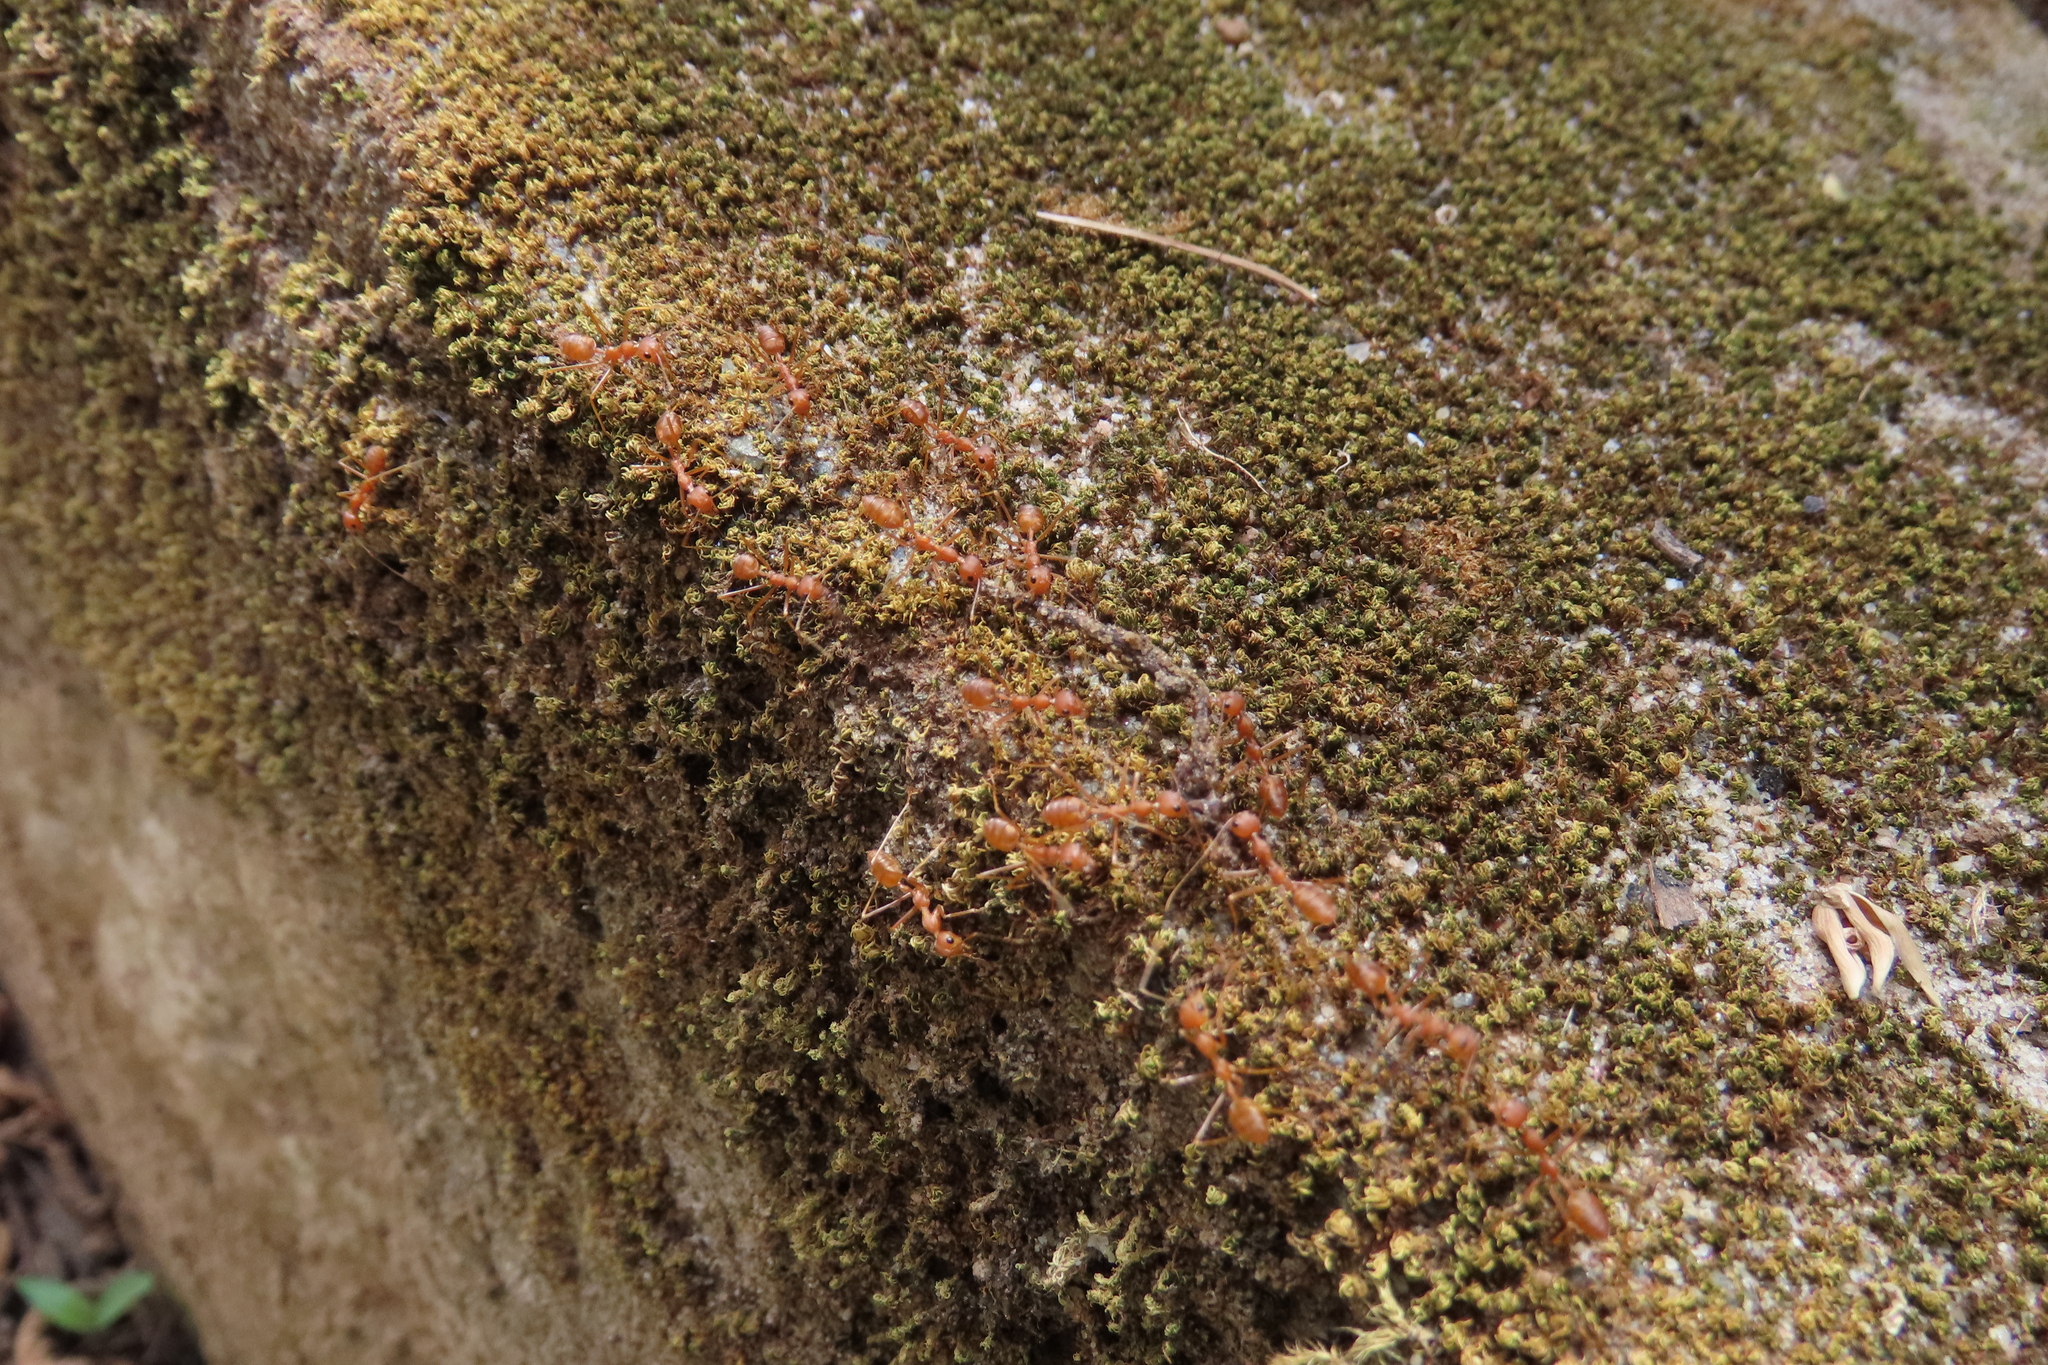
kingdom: Animalia
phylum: Arthropoda
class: Insecta
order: Hymenoptera
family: Formicidae
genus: Oecophylla
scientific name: Oecophylla smaragdina
